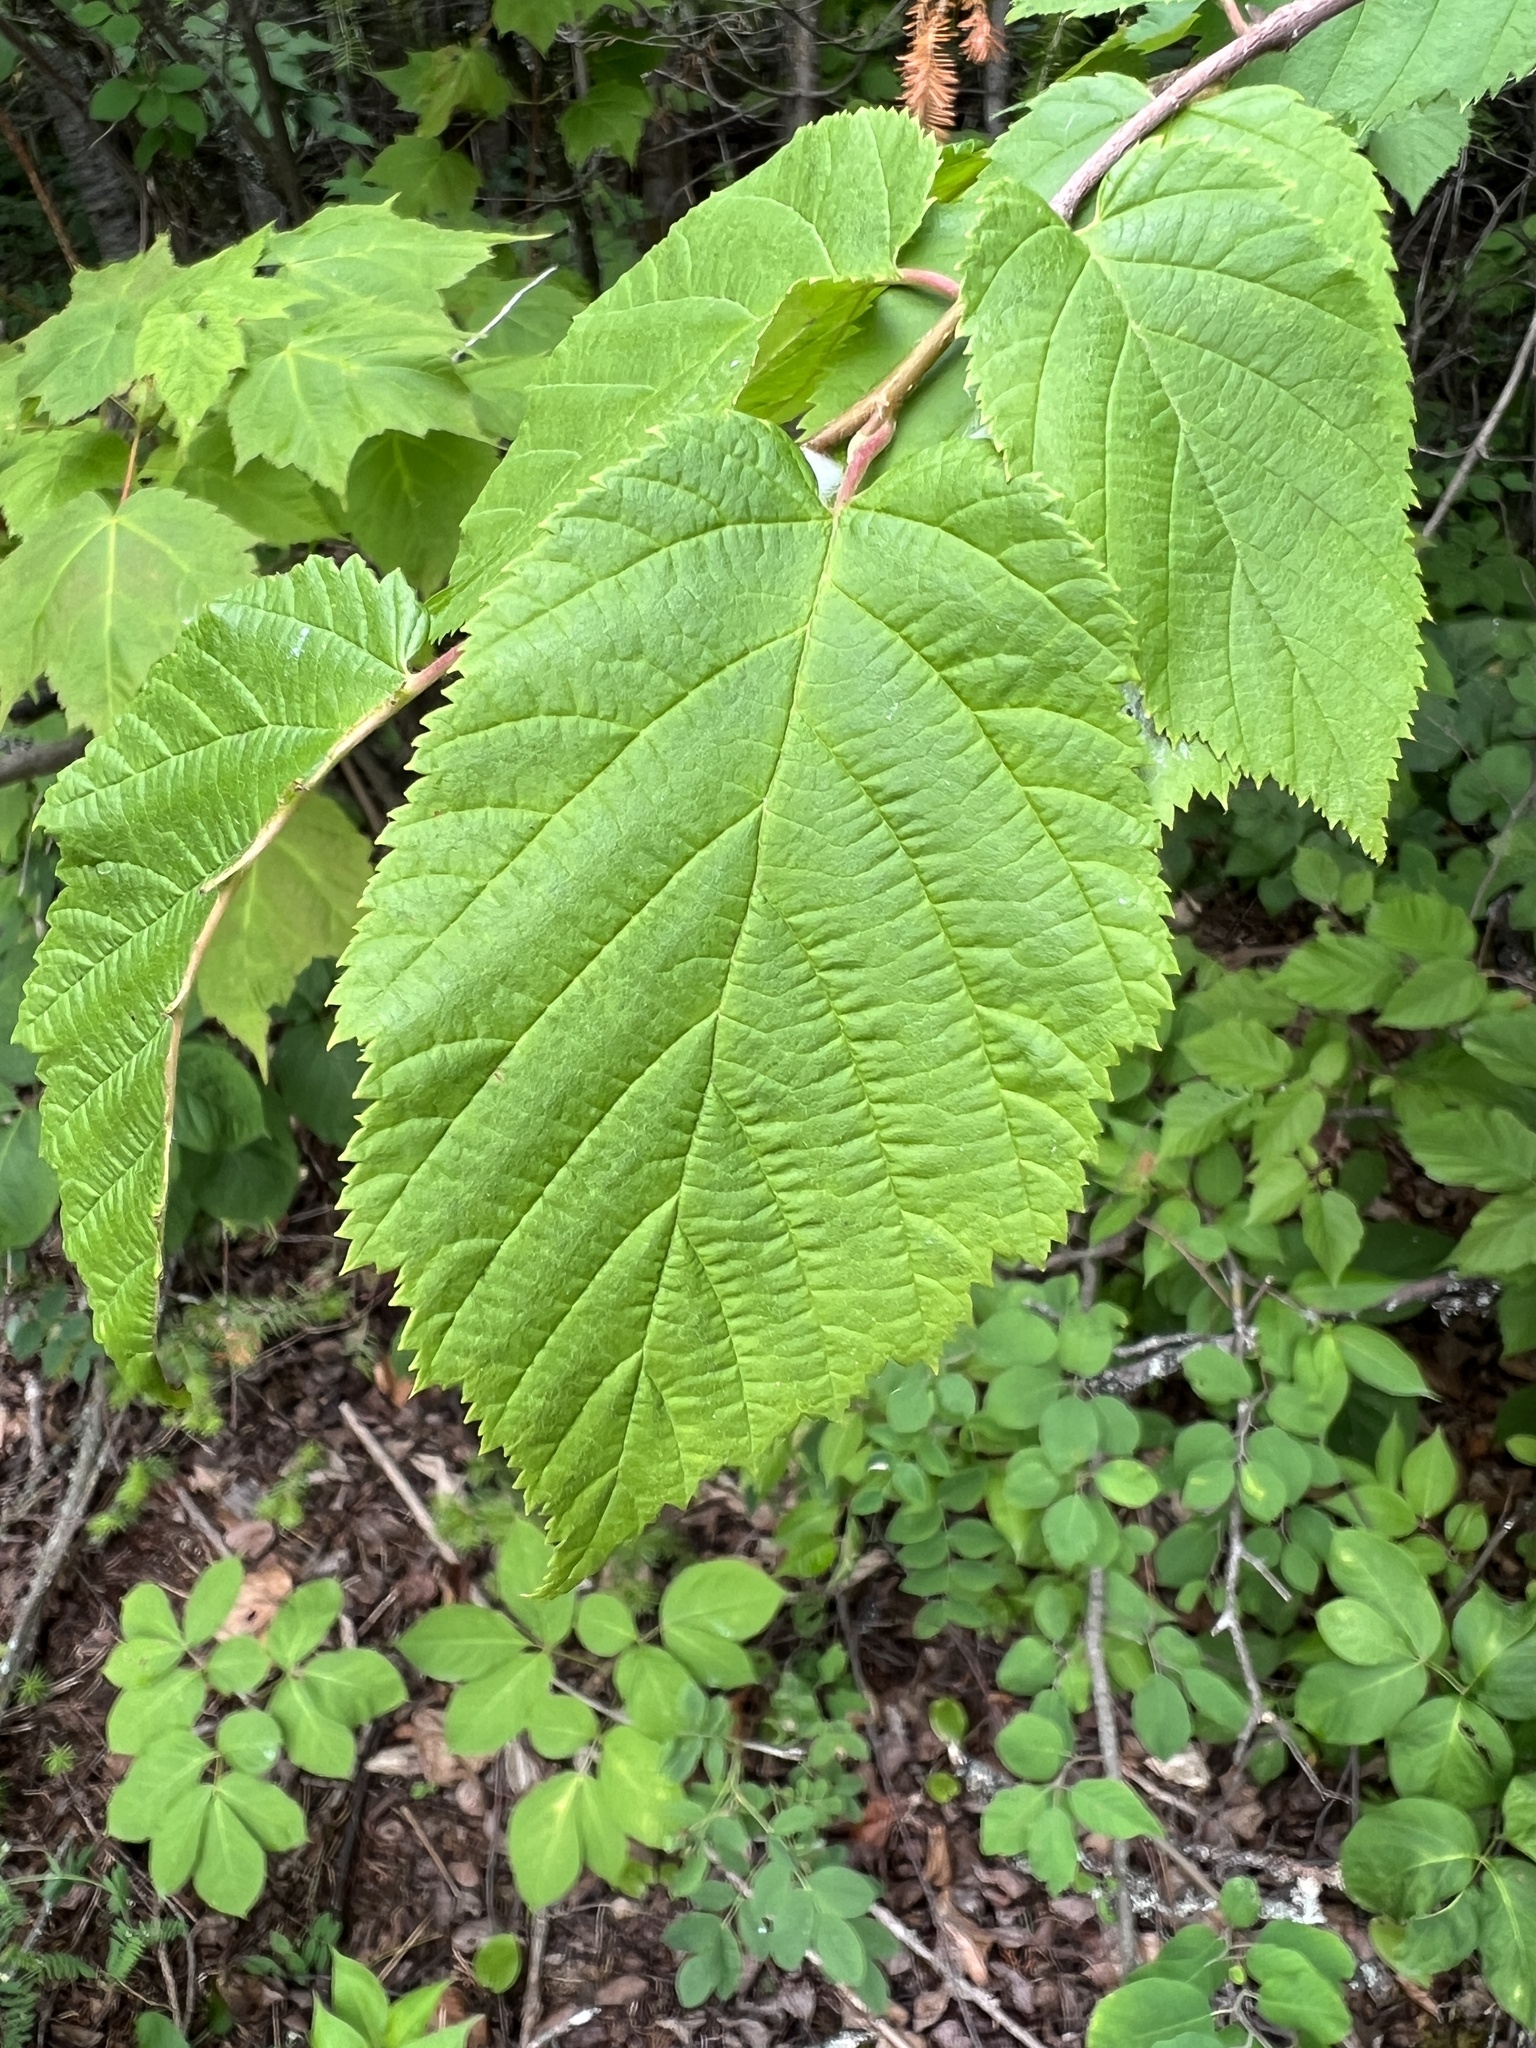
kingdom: Plantae
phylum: Tracheophyta
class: Magnoliopsida
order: Fagales
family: Betulaceae
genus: Corylus
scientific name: Corylus cornuta
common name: Beaked hazel
